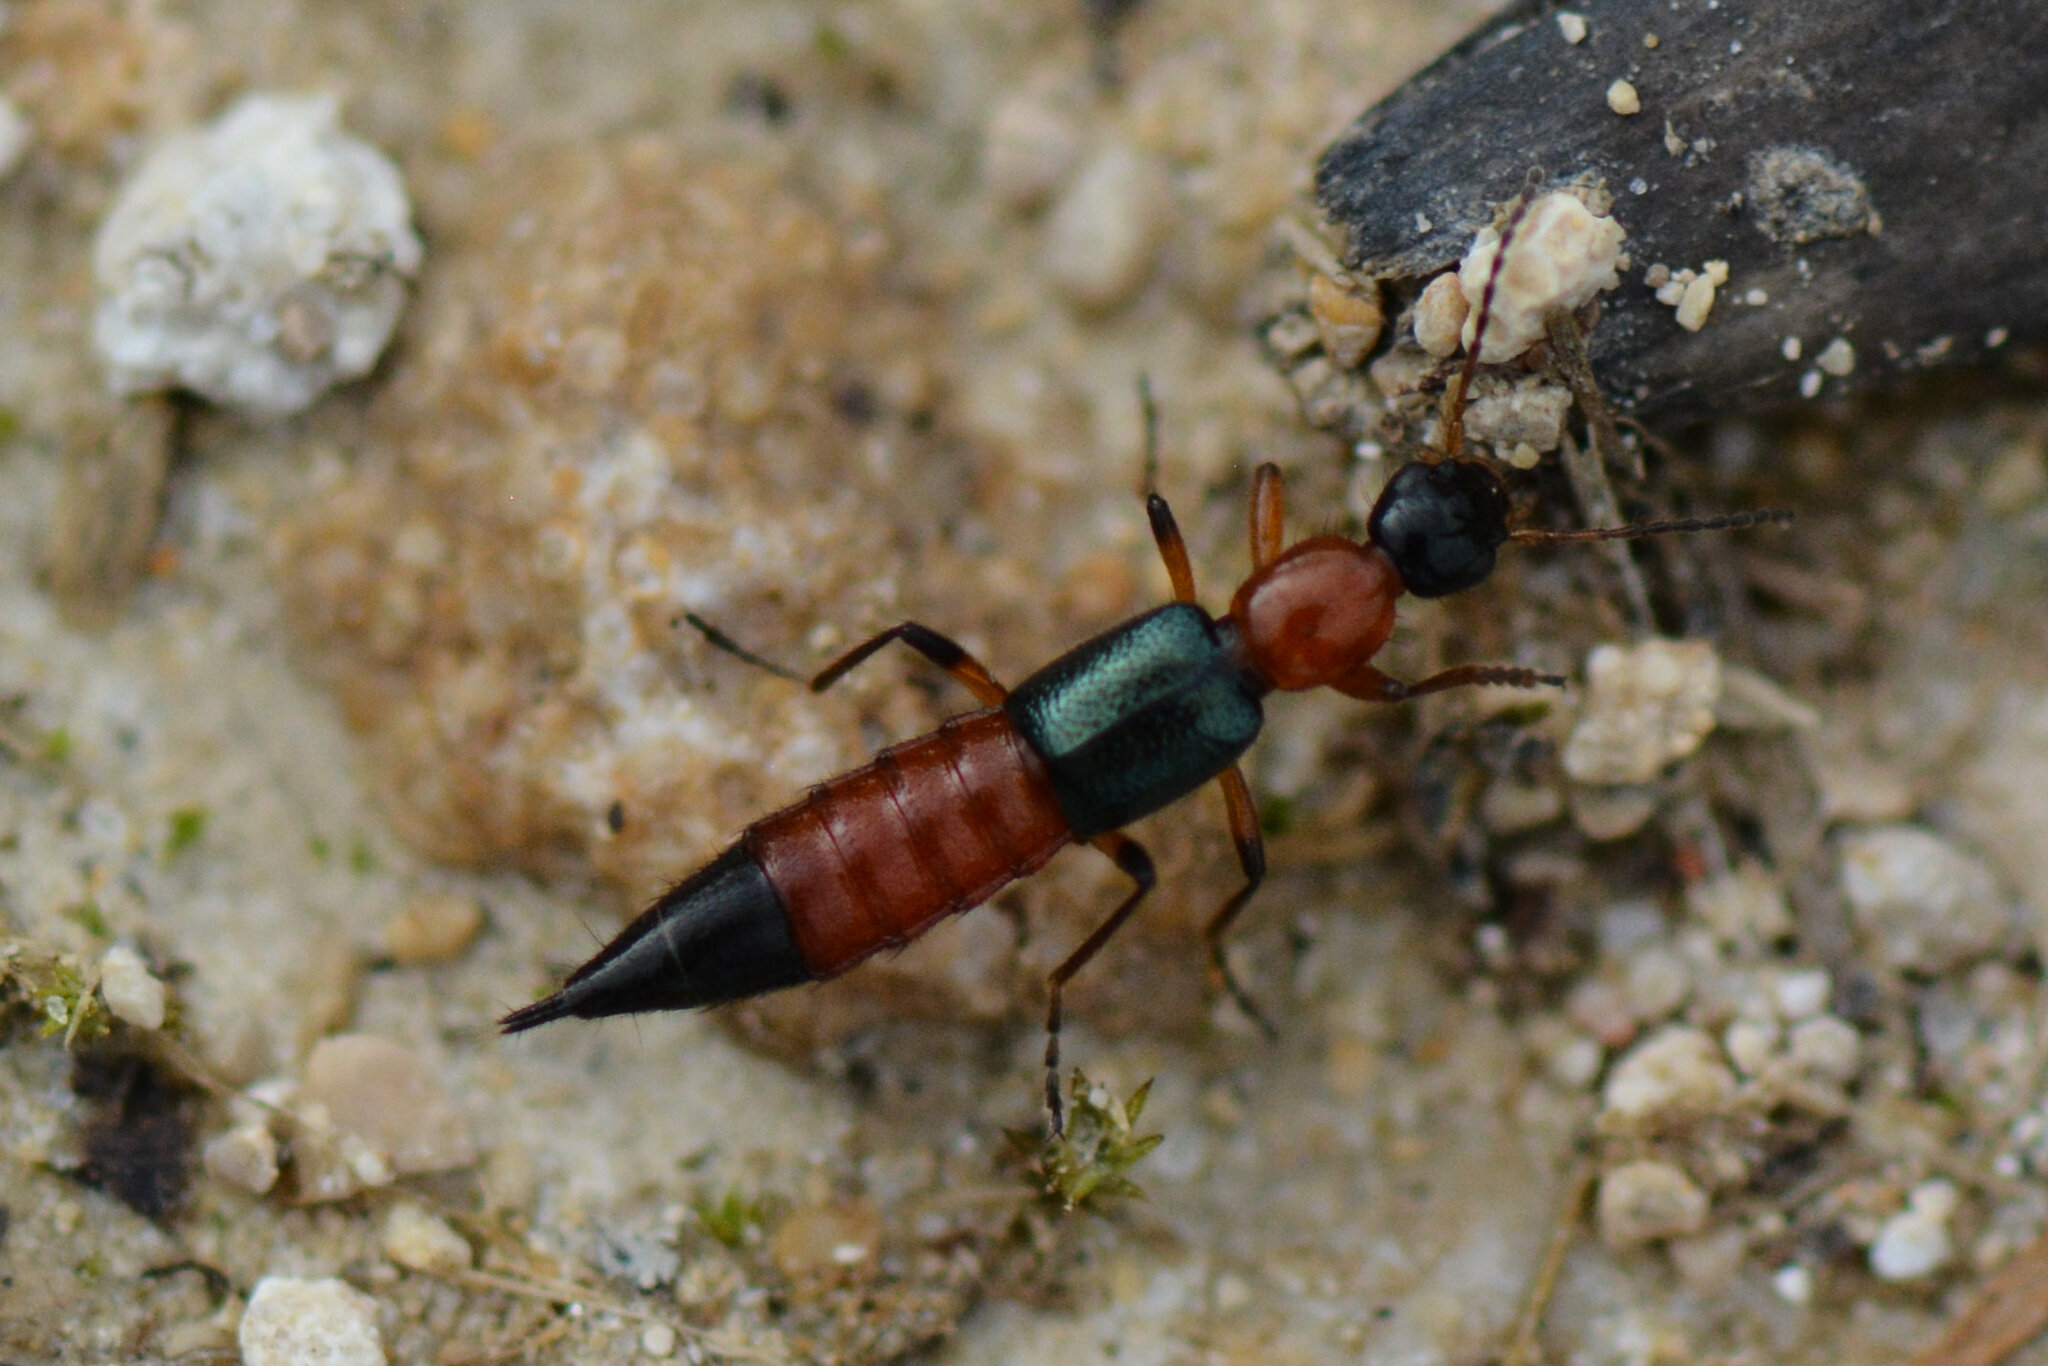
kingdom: Animalia
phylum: Arthropoda
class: Insecta
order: Coleoptera
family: Staphylinidae
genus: Paederus
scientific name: Paederus fuscipes
